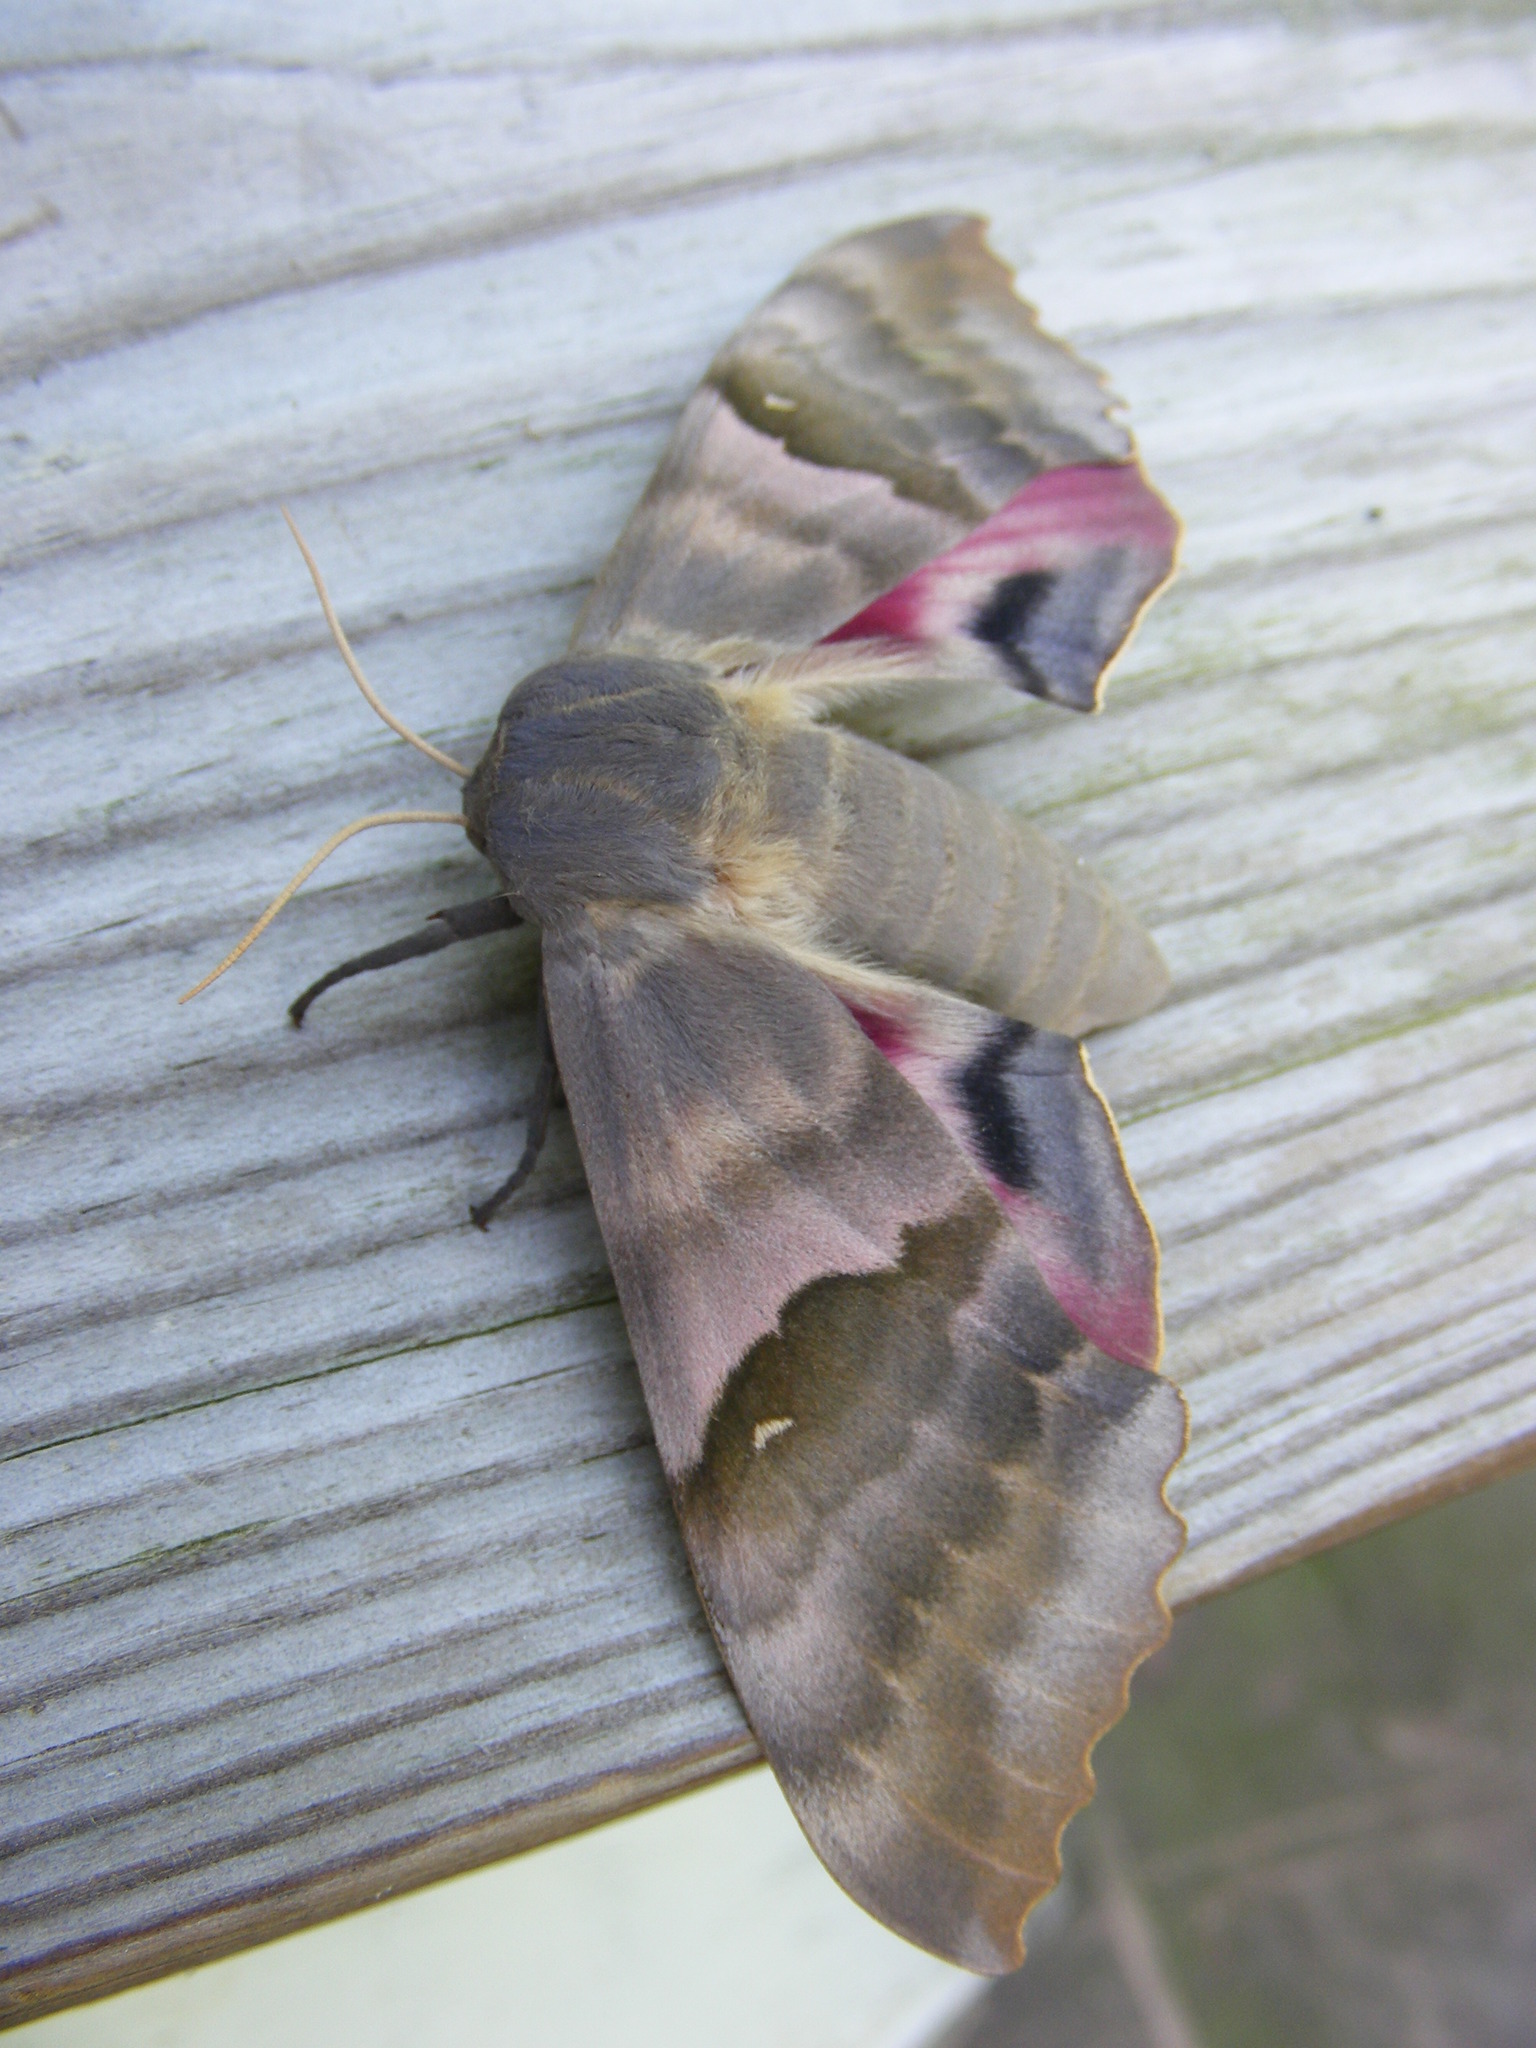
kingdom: Animalia
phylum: Arthropoda
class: Insecta
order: Lepidoptera
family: Sphingidae
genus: Pachysphinx
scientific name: Pachysphinx modesta
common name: Big poplar sphinx
